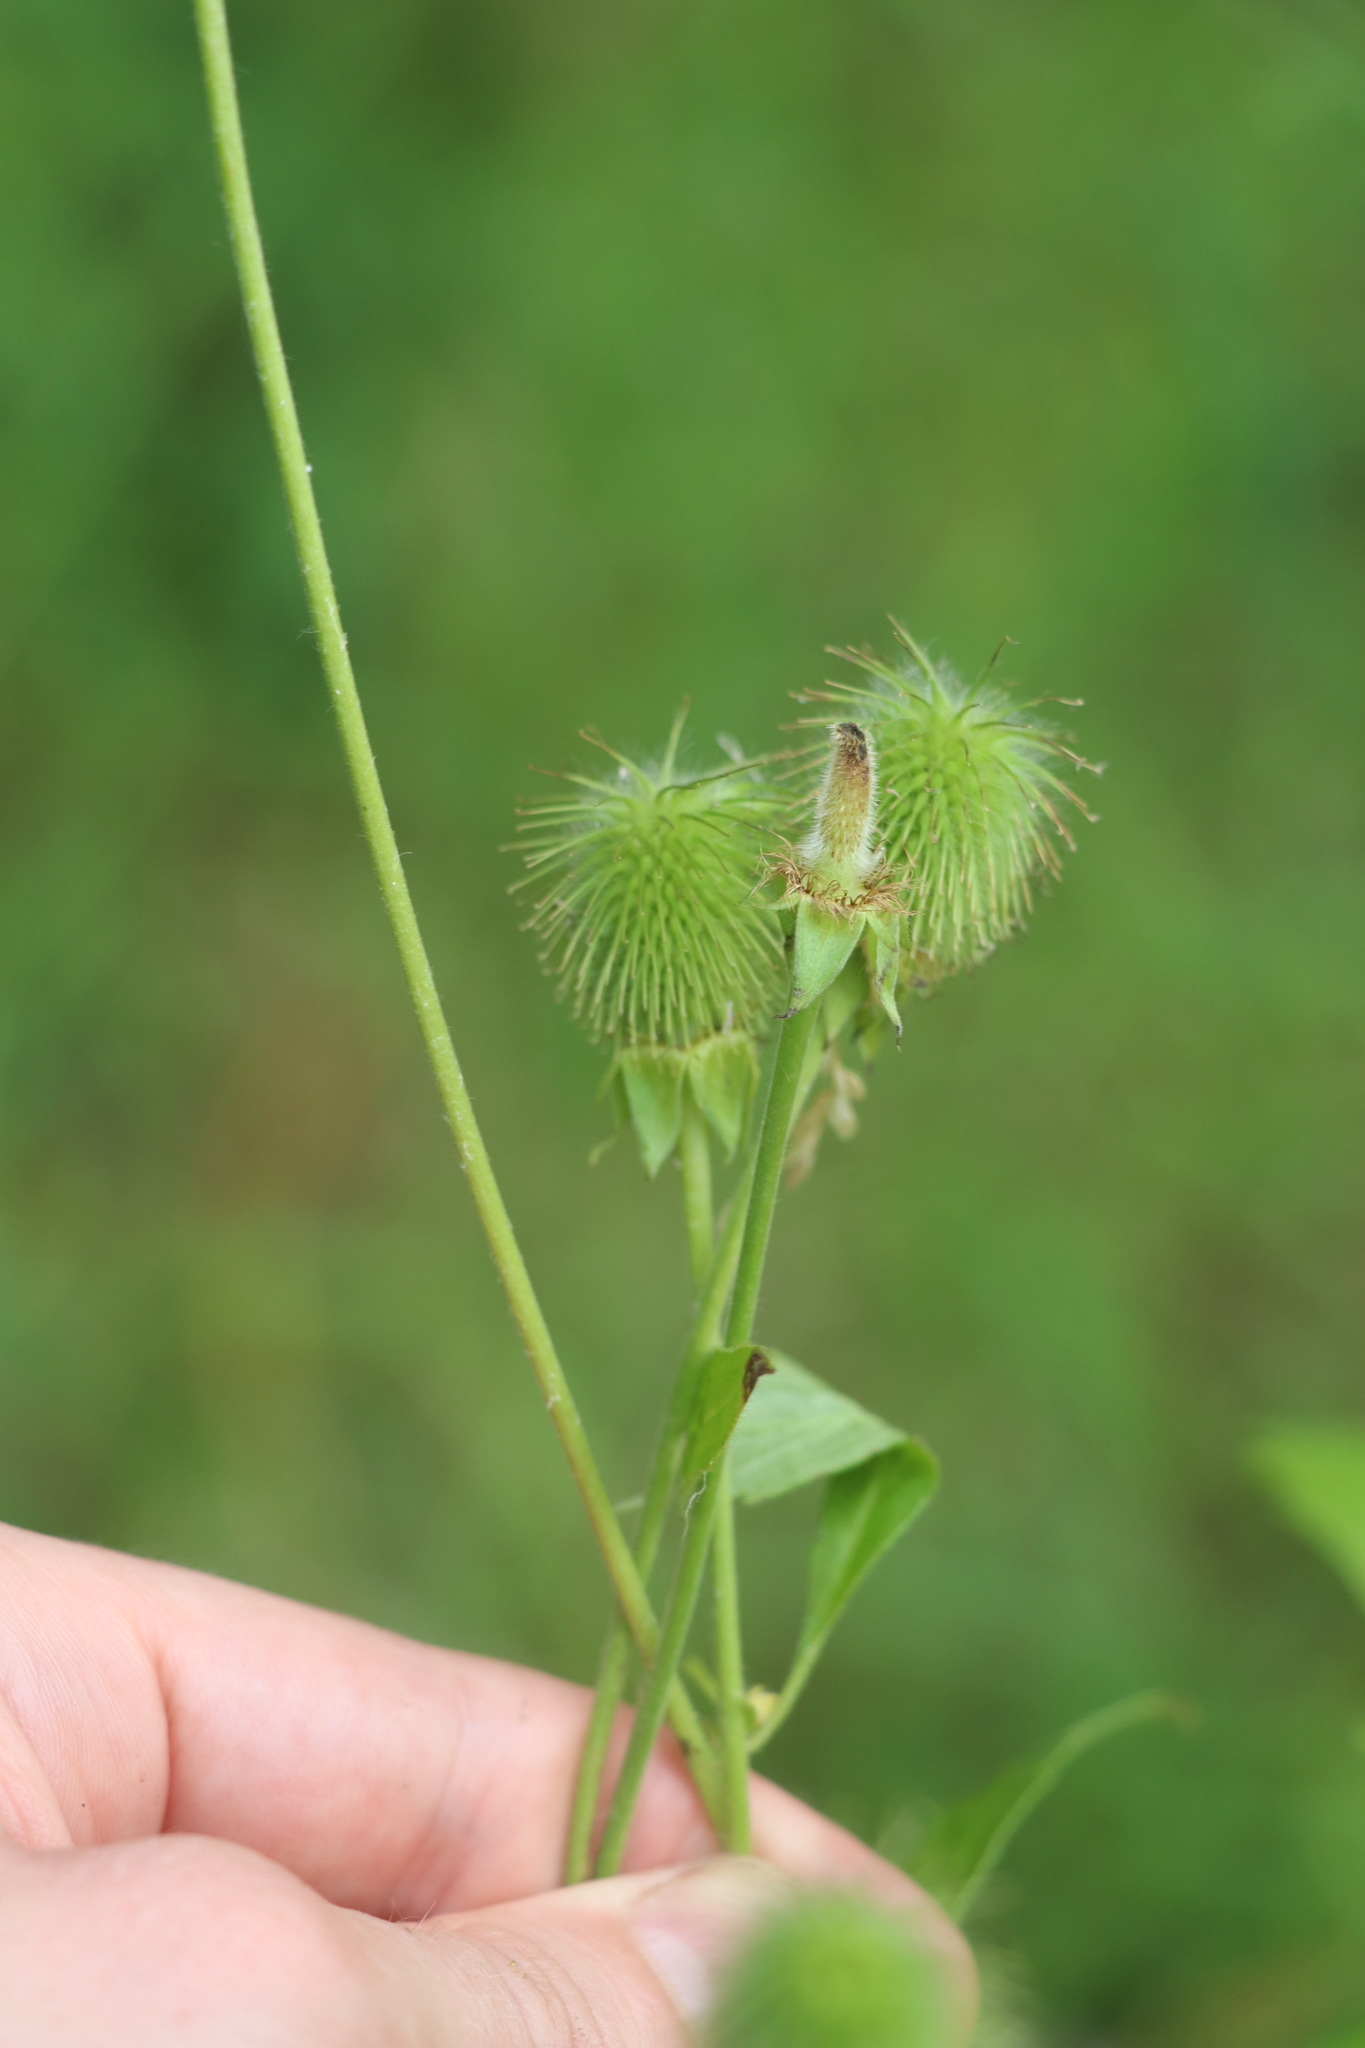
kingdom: Plantae
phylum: Tracheophyta
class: Magnoliopsida
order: Rosales
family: Rosaceae
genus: Geum
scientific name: Geum aleppicum
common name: Yellow avens
